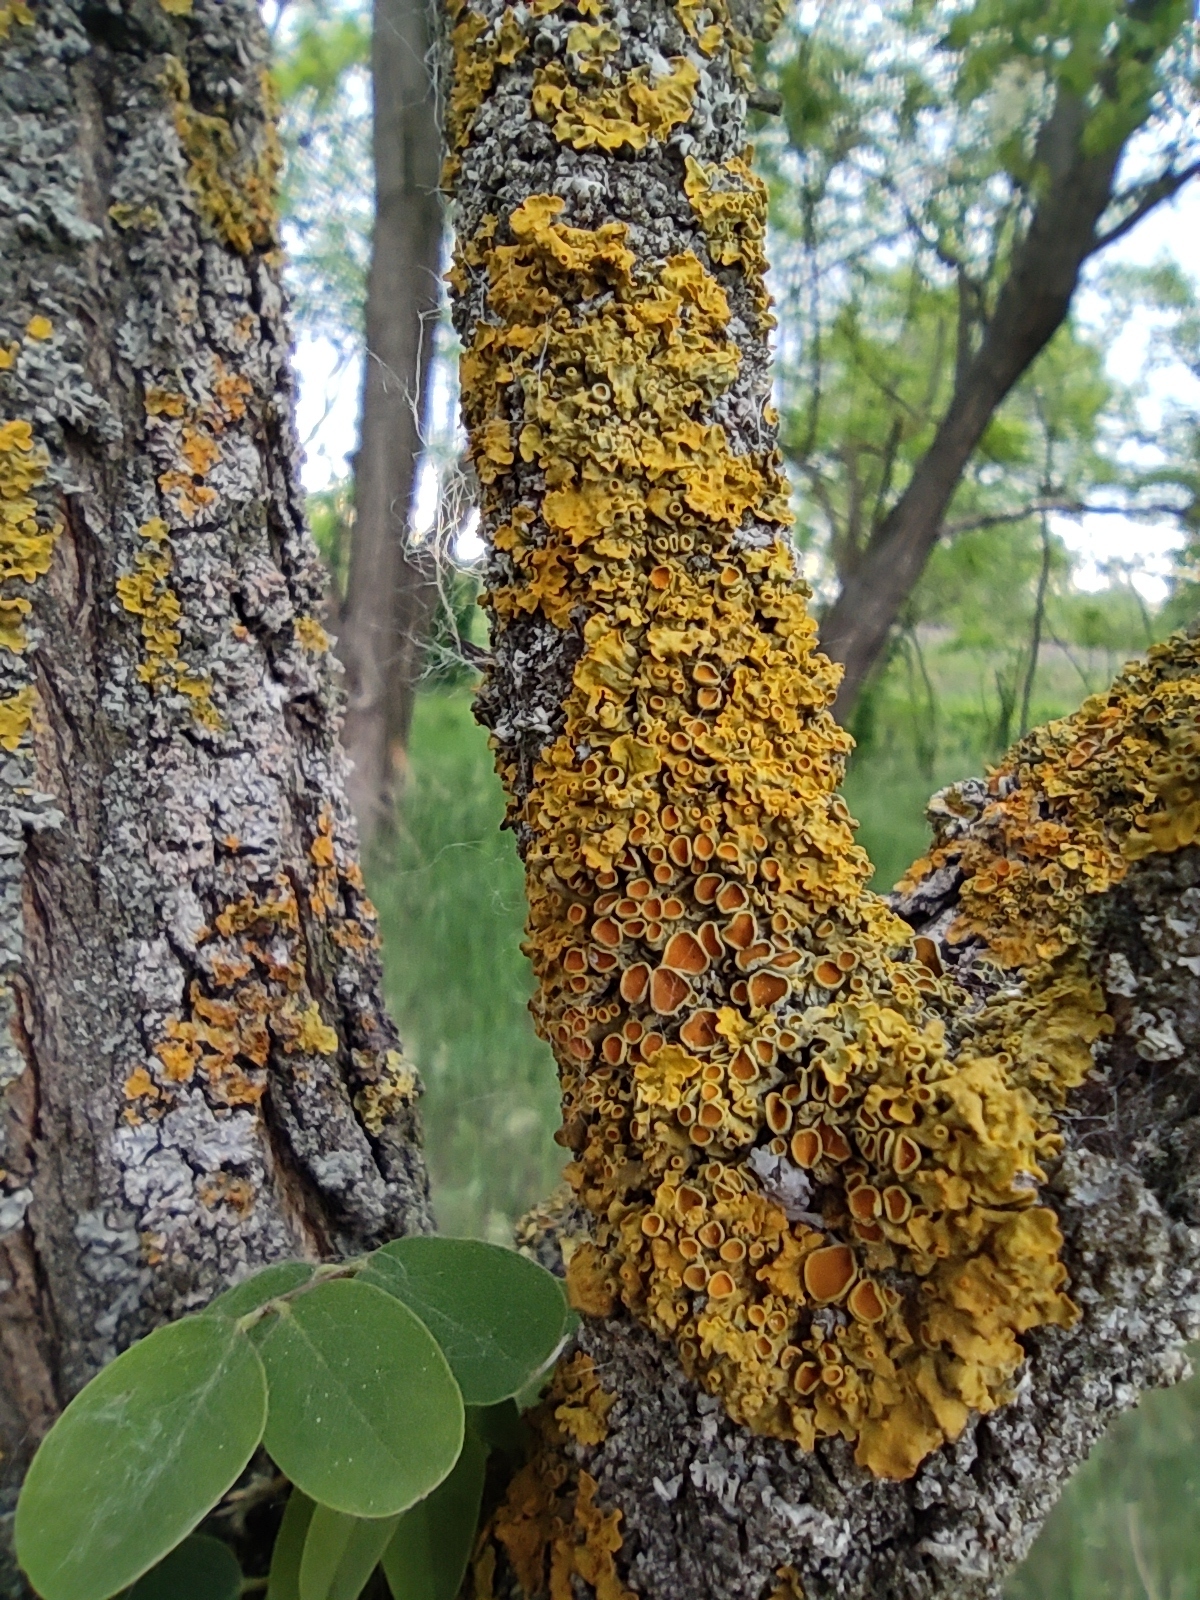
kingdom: Fungi
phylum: Ascomycota
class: Lecanoromycetes
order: Teloschistales
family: Teloschistaceae
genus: Xanthoria
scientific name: Xanthoria parietina
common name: Common orange lichen
